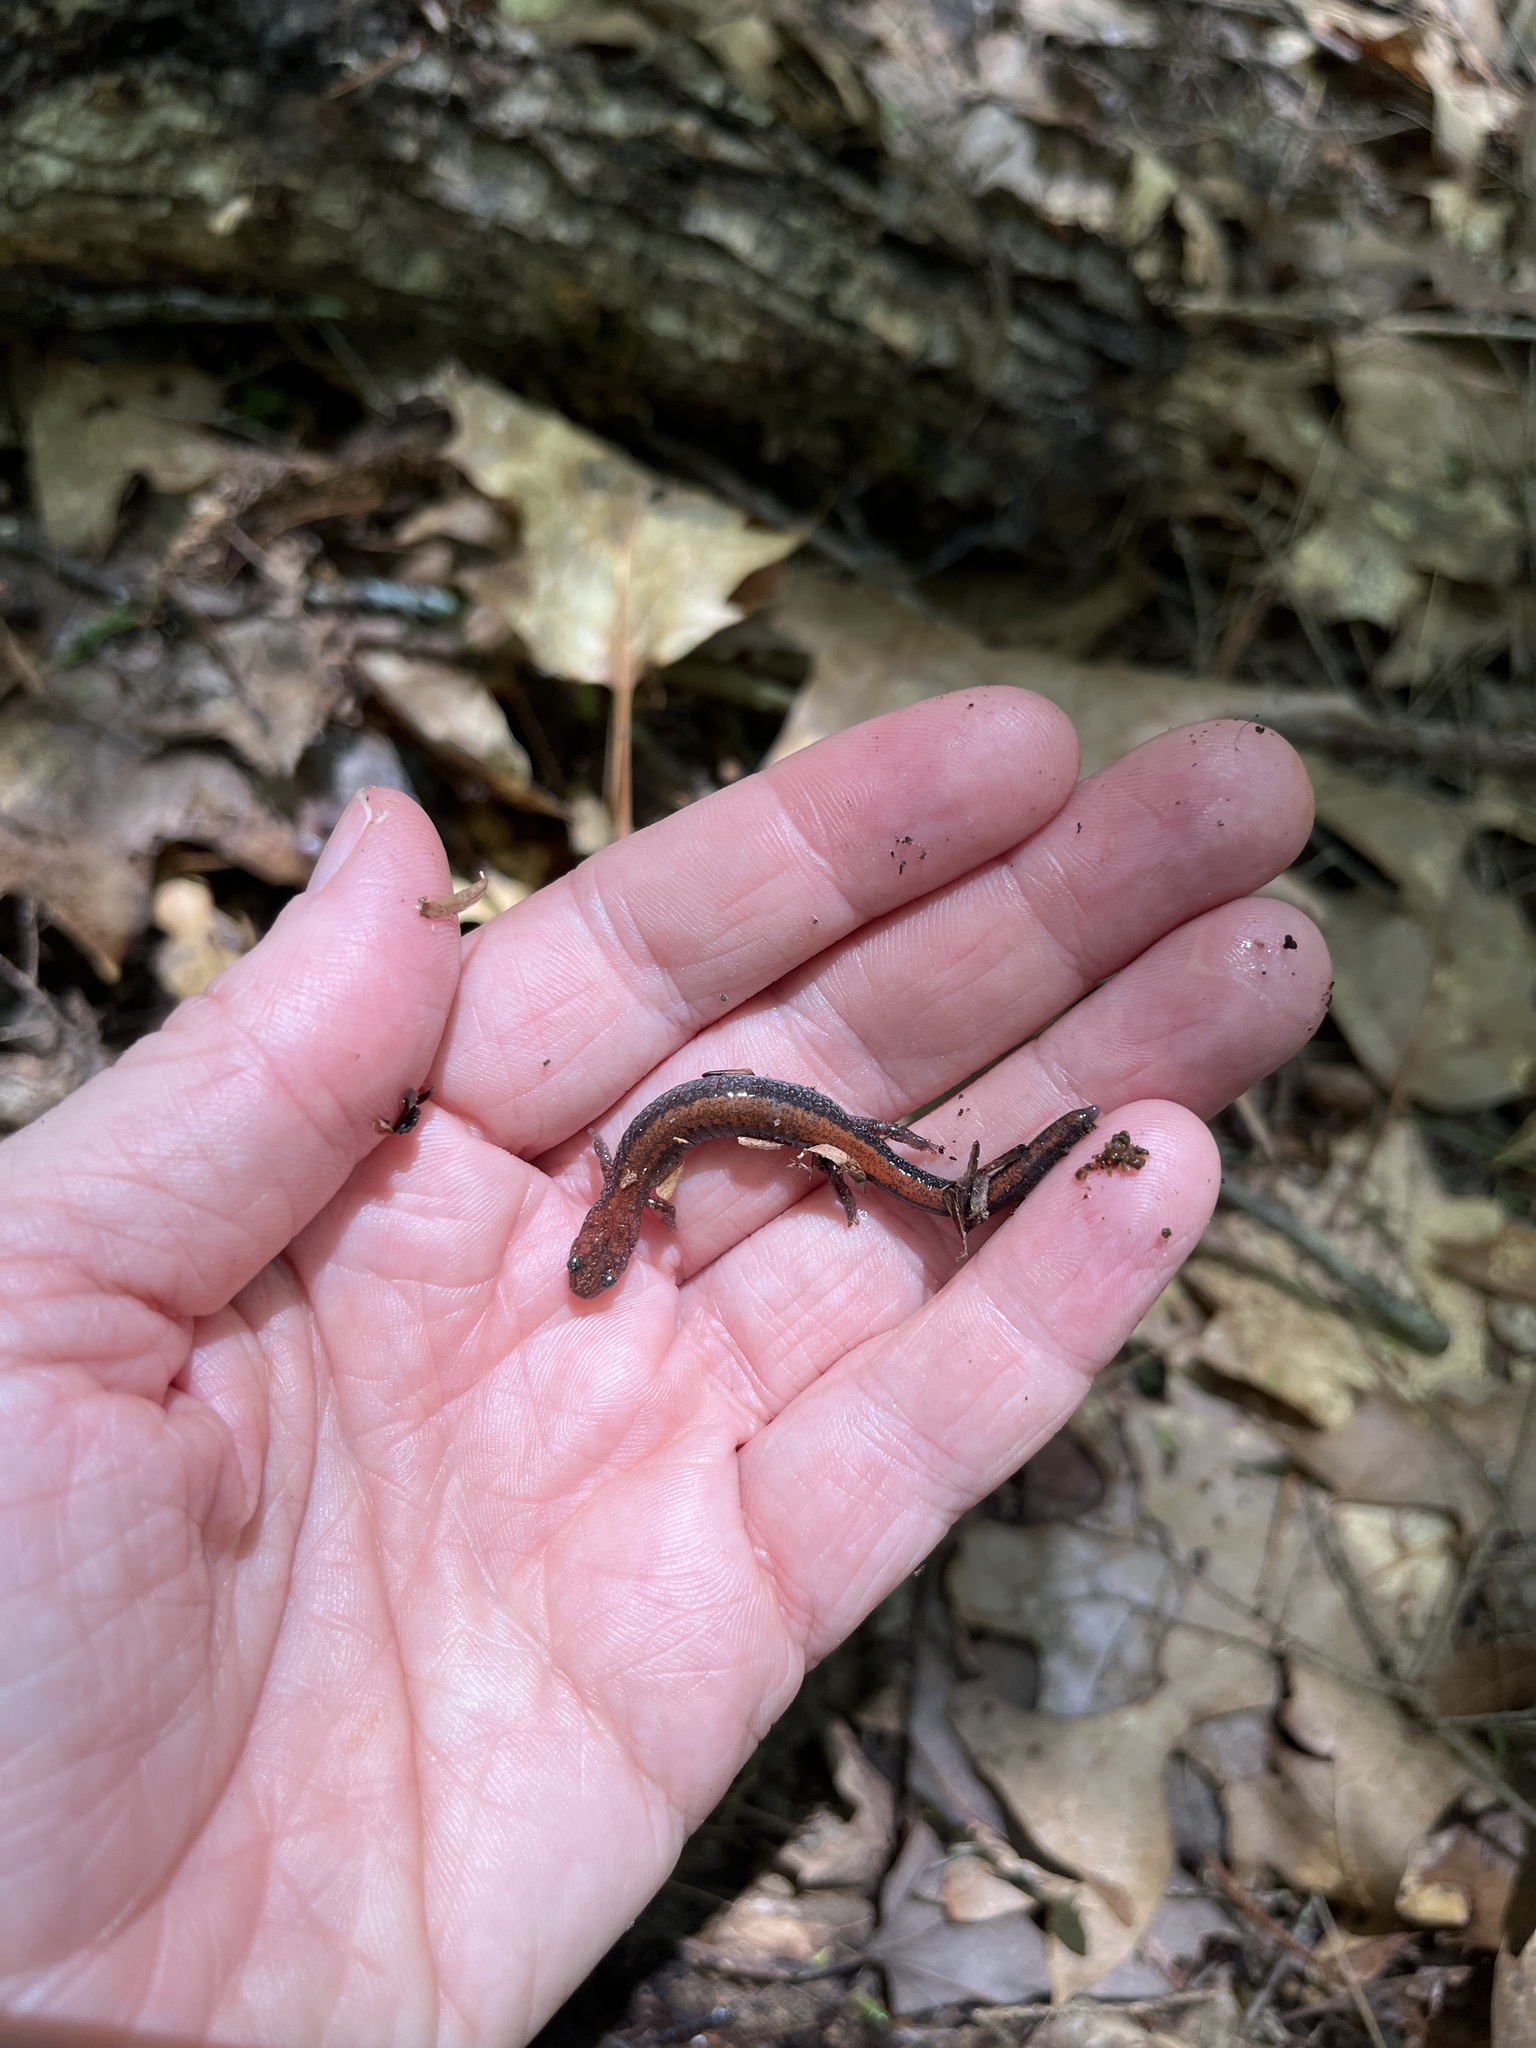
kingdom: Animalia
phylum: Chordata
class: Amphibia
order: Caudata
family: Plethodontidae
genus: Plethodon
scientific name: Plethodon cinereus
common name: Redback salamander
